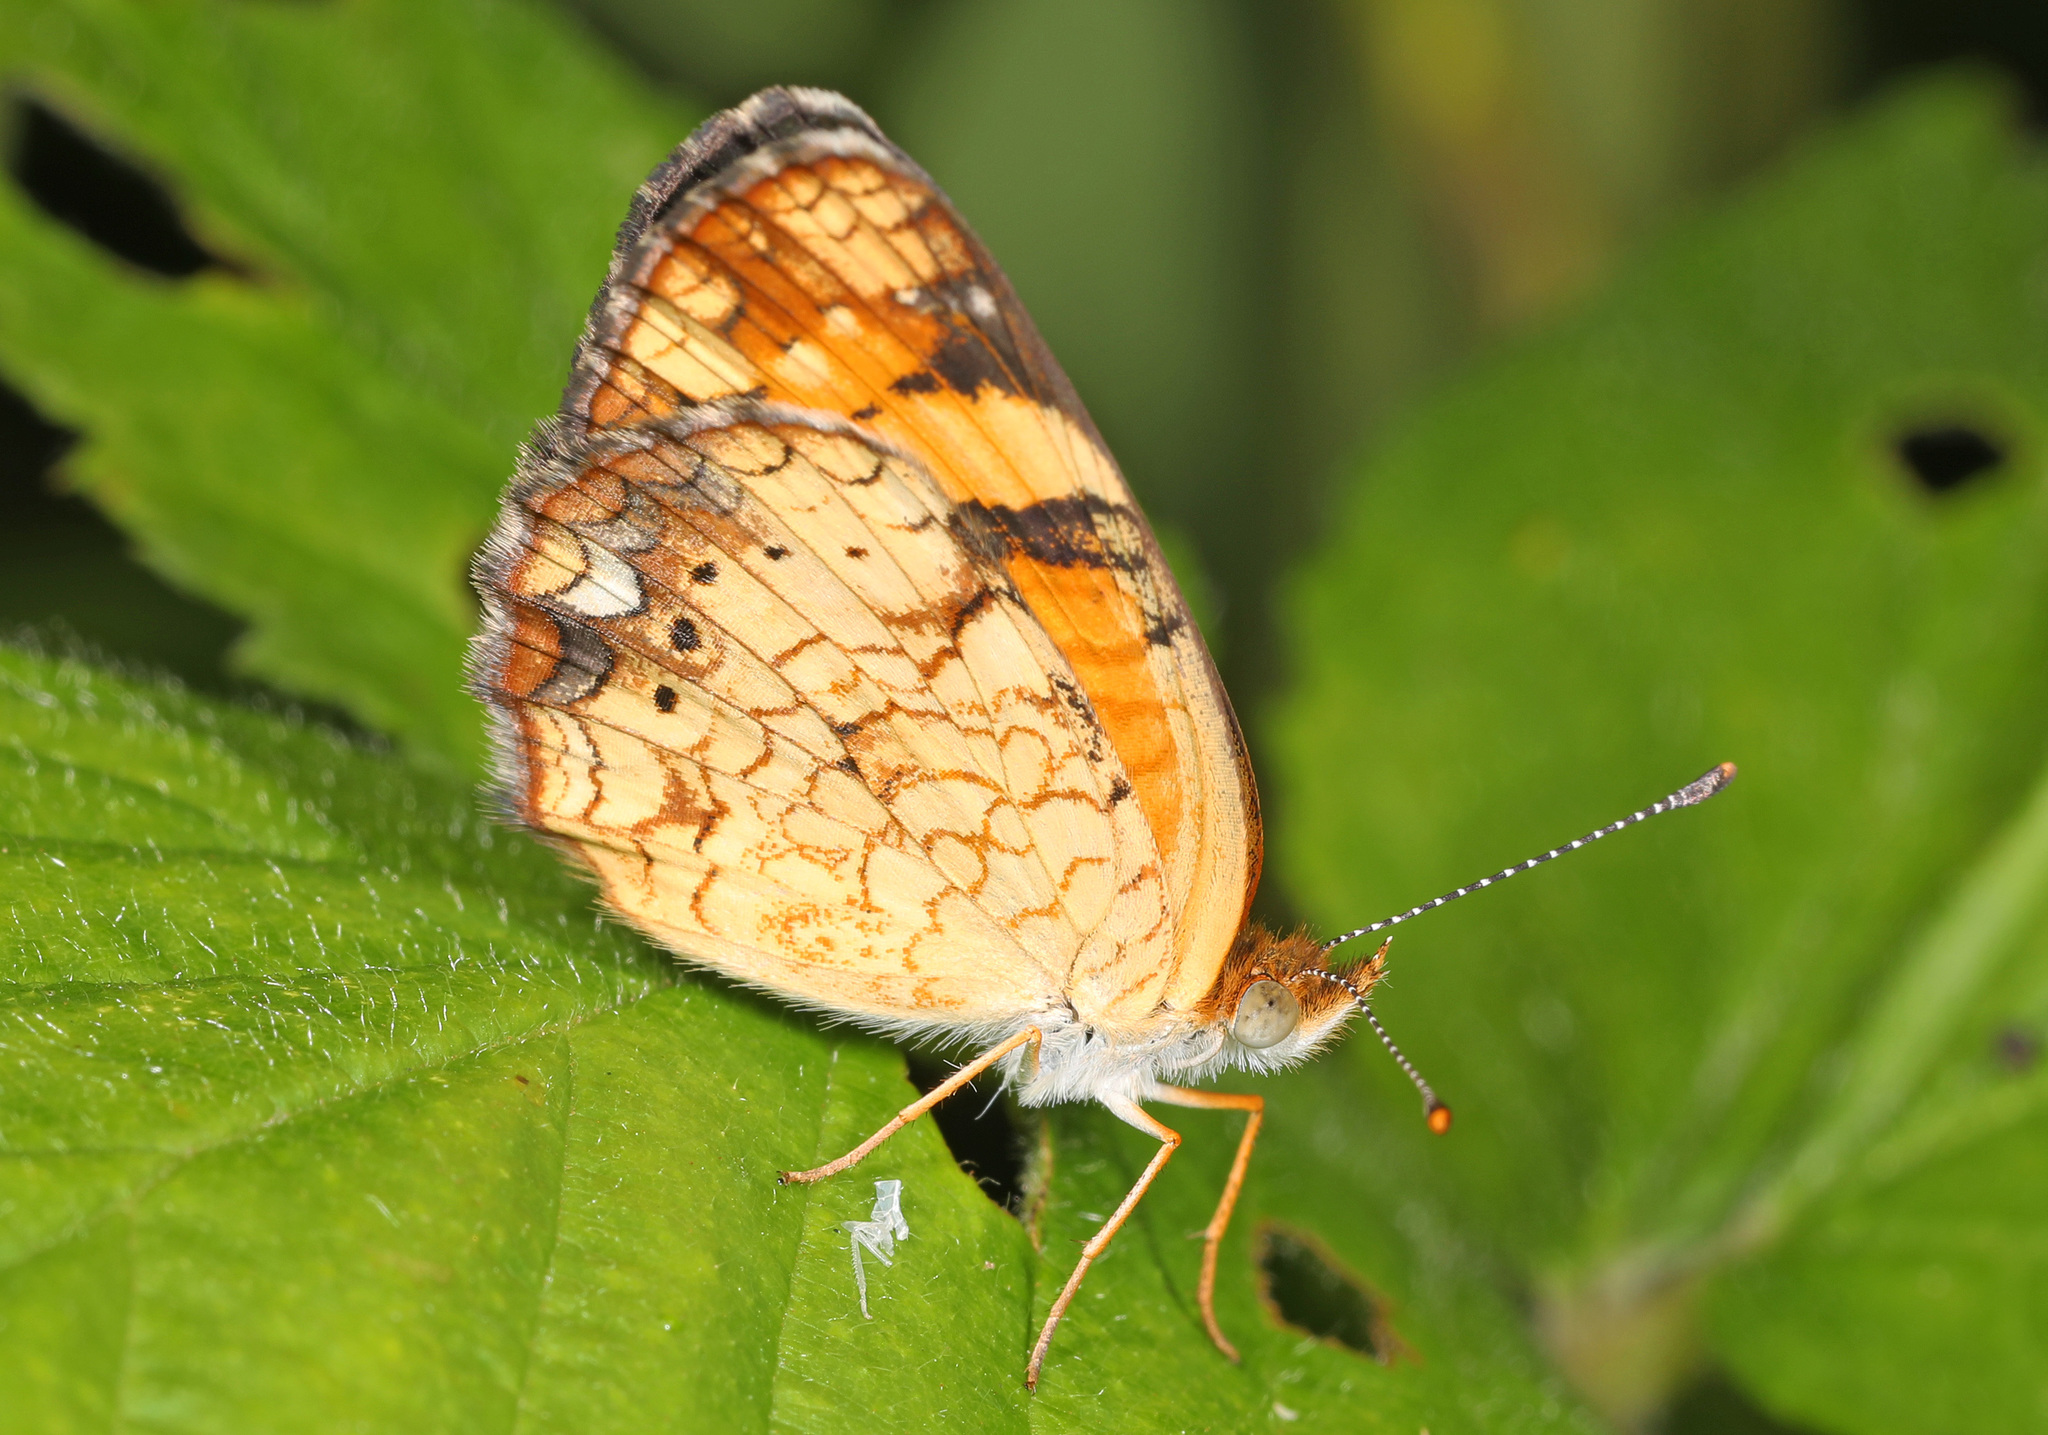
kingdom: Animalia
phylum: Arthropoda
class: Insecta
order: Lepidoptera
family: Nymphalidae
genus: Phyciodes
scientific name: Phyciodes tharos
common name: Pearl crescent
